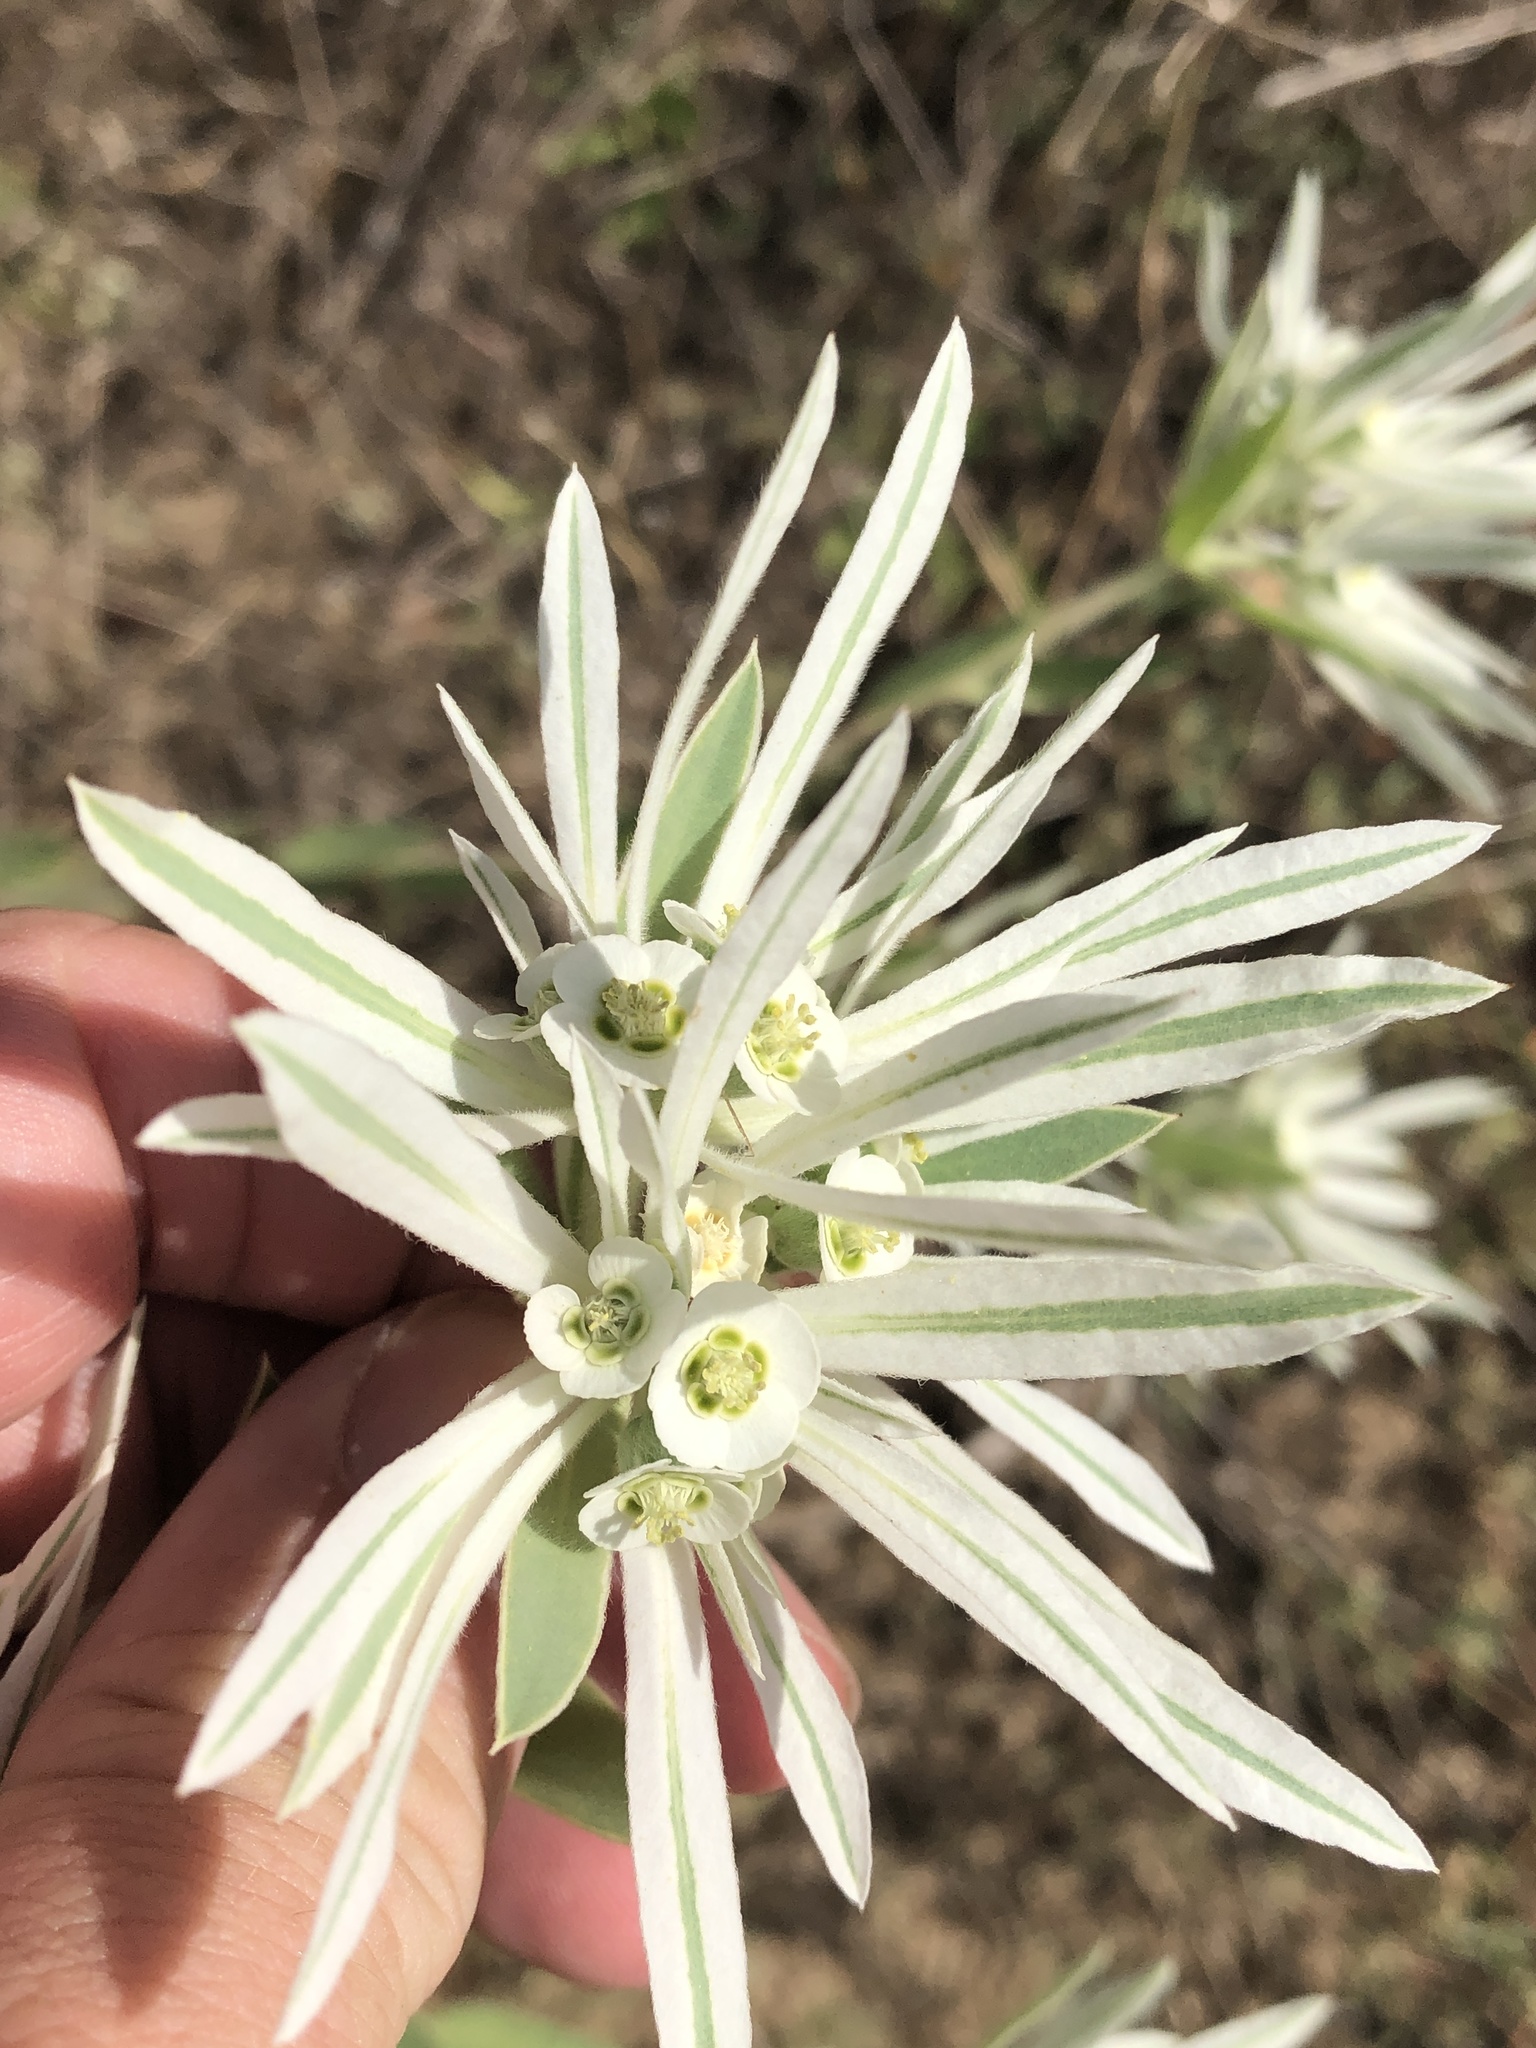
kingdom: Plantae
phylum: Tracheophyta
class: Magnoliopsida
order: Malpighiales
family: Euphorbiaceae
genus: Euphorbia
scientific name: Euphorbia bicolor
